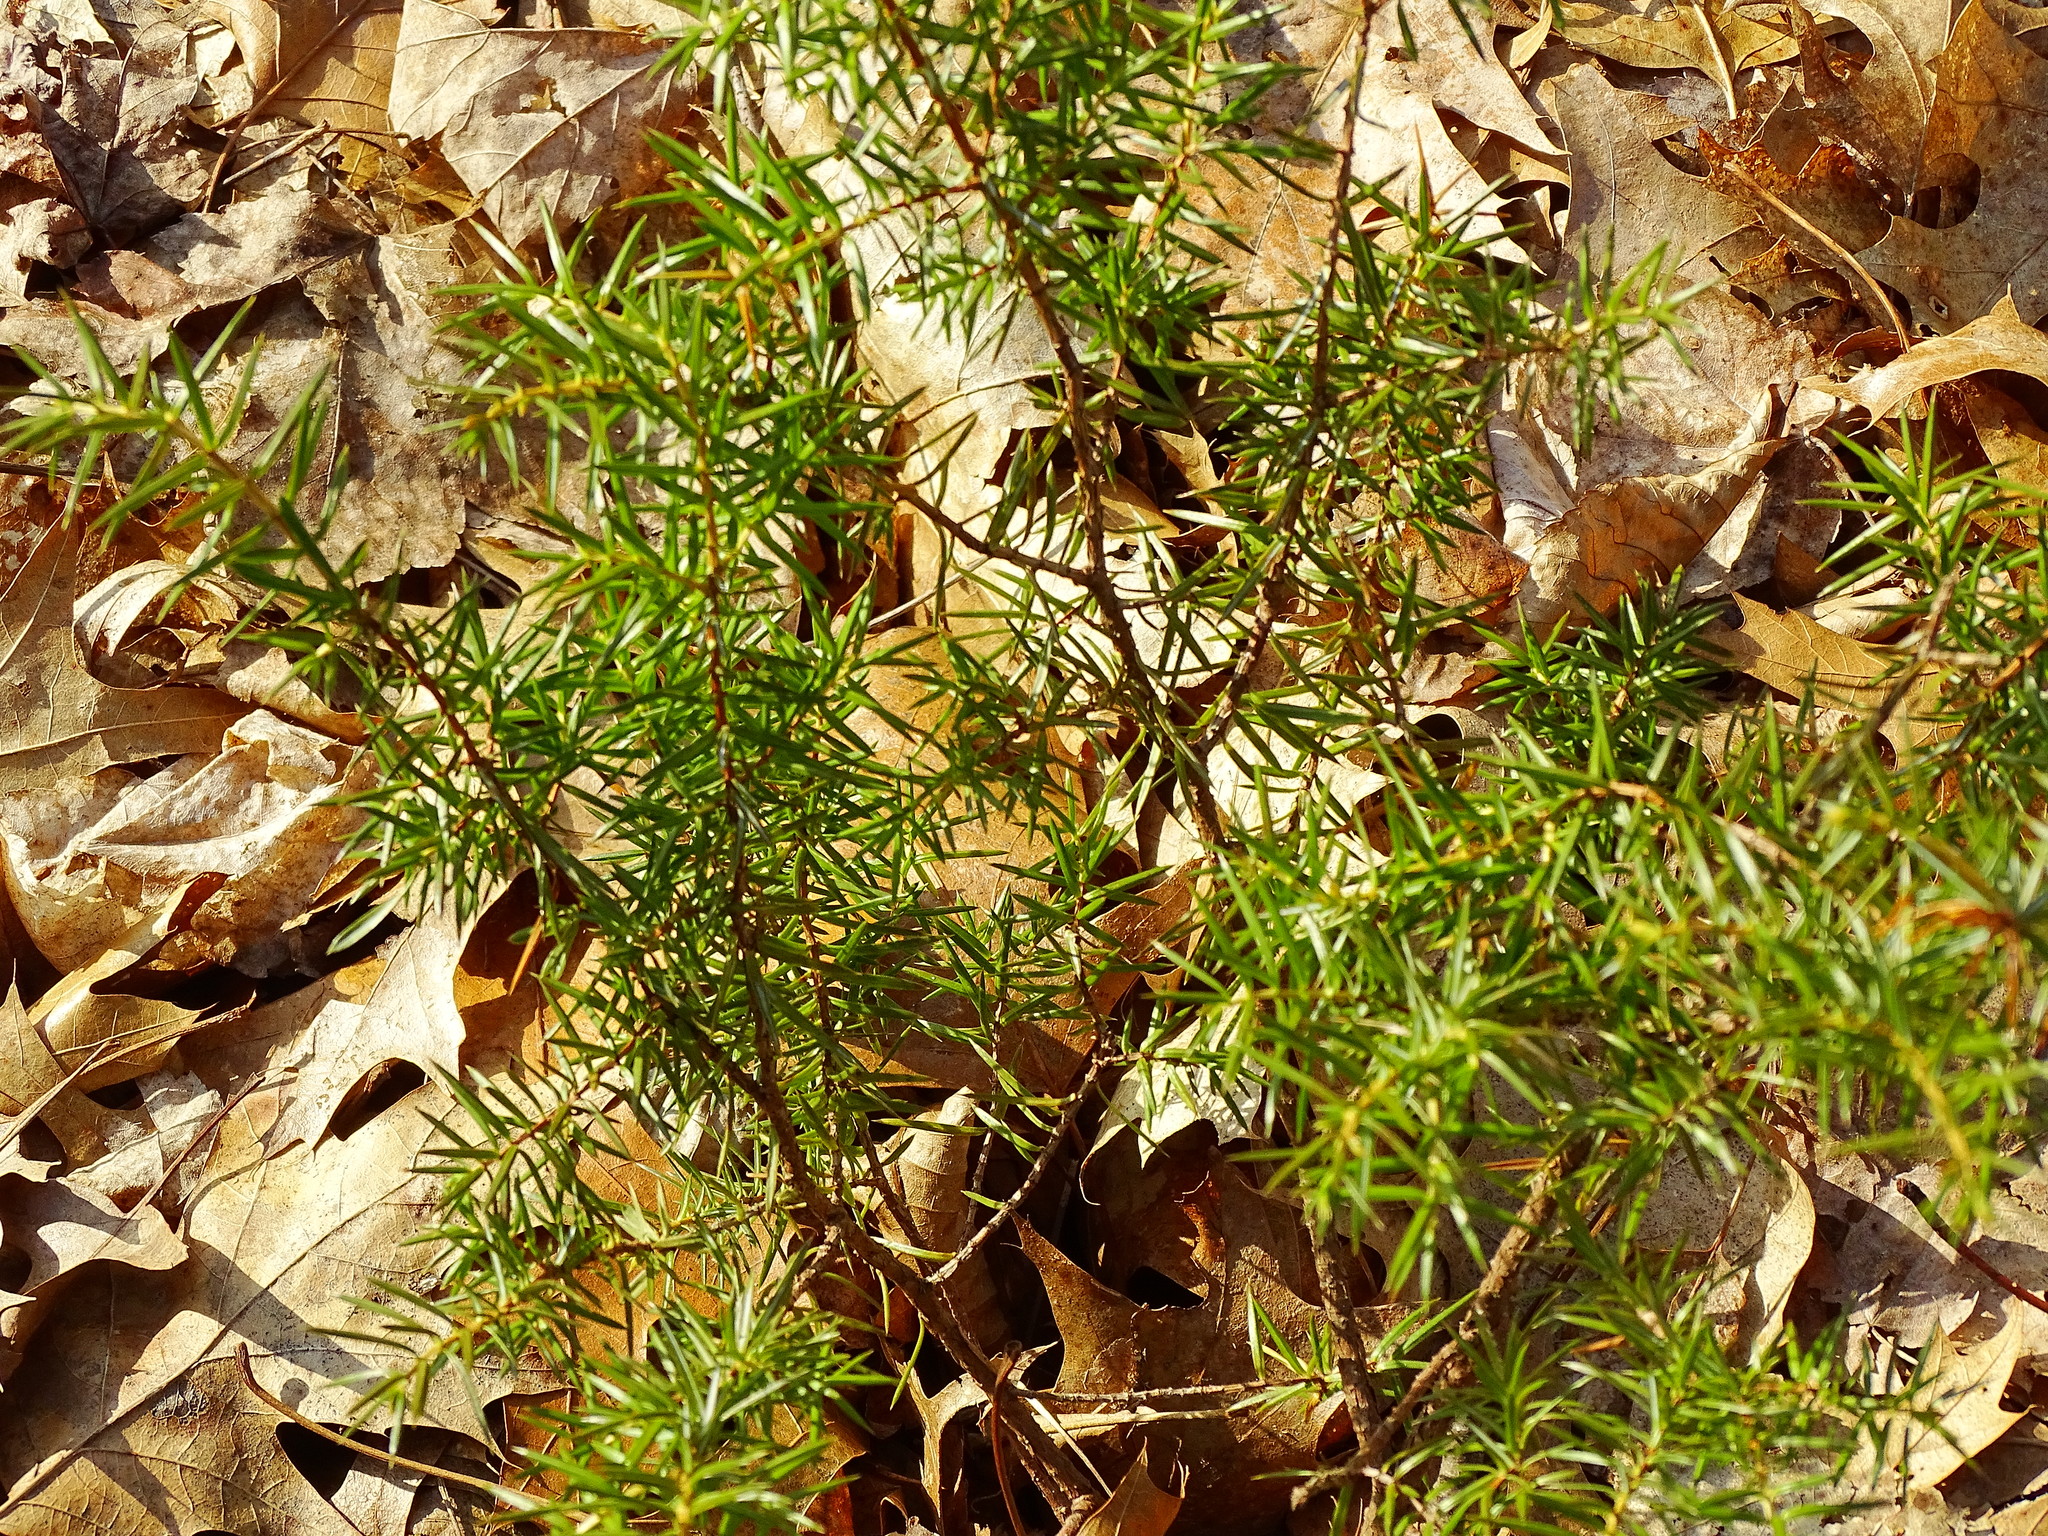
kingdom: Plantae
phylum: Tracheophyta
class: Pinopsida
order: Pinales
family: Cupressaceae
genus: Juniperus
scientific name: Juniperus communis
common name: Common juniper
